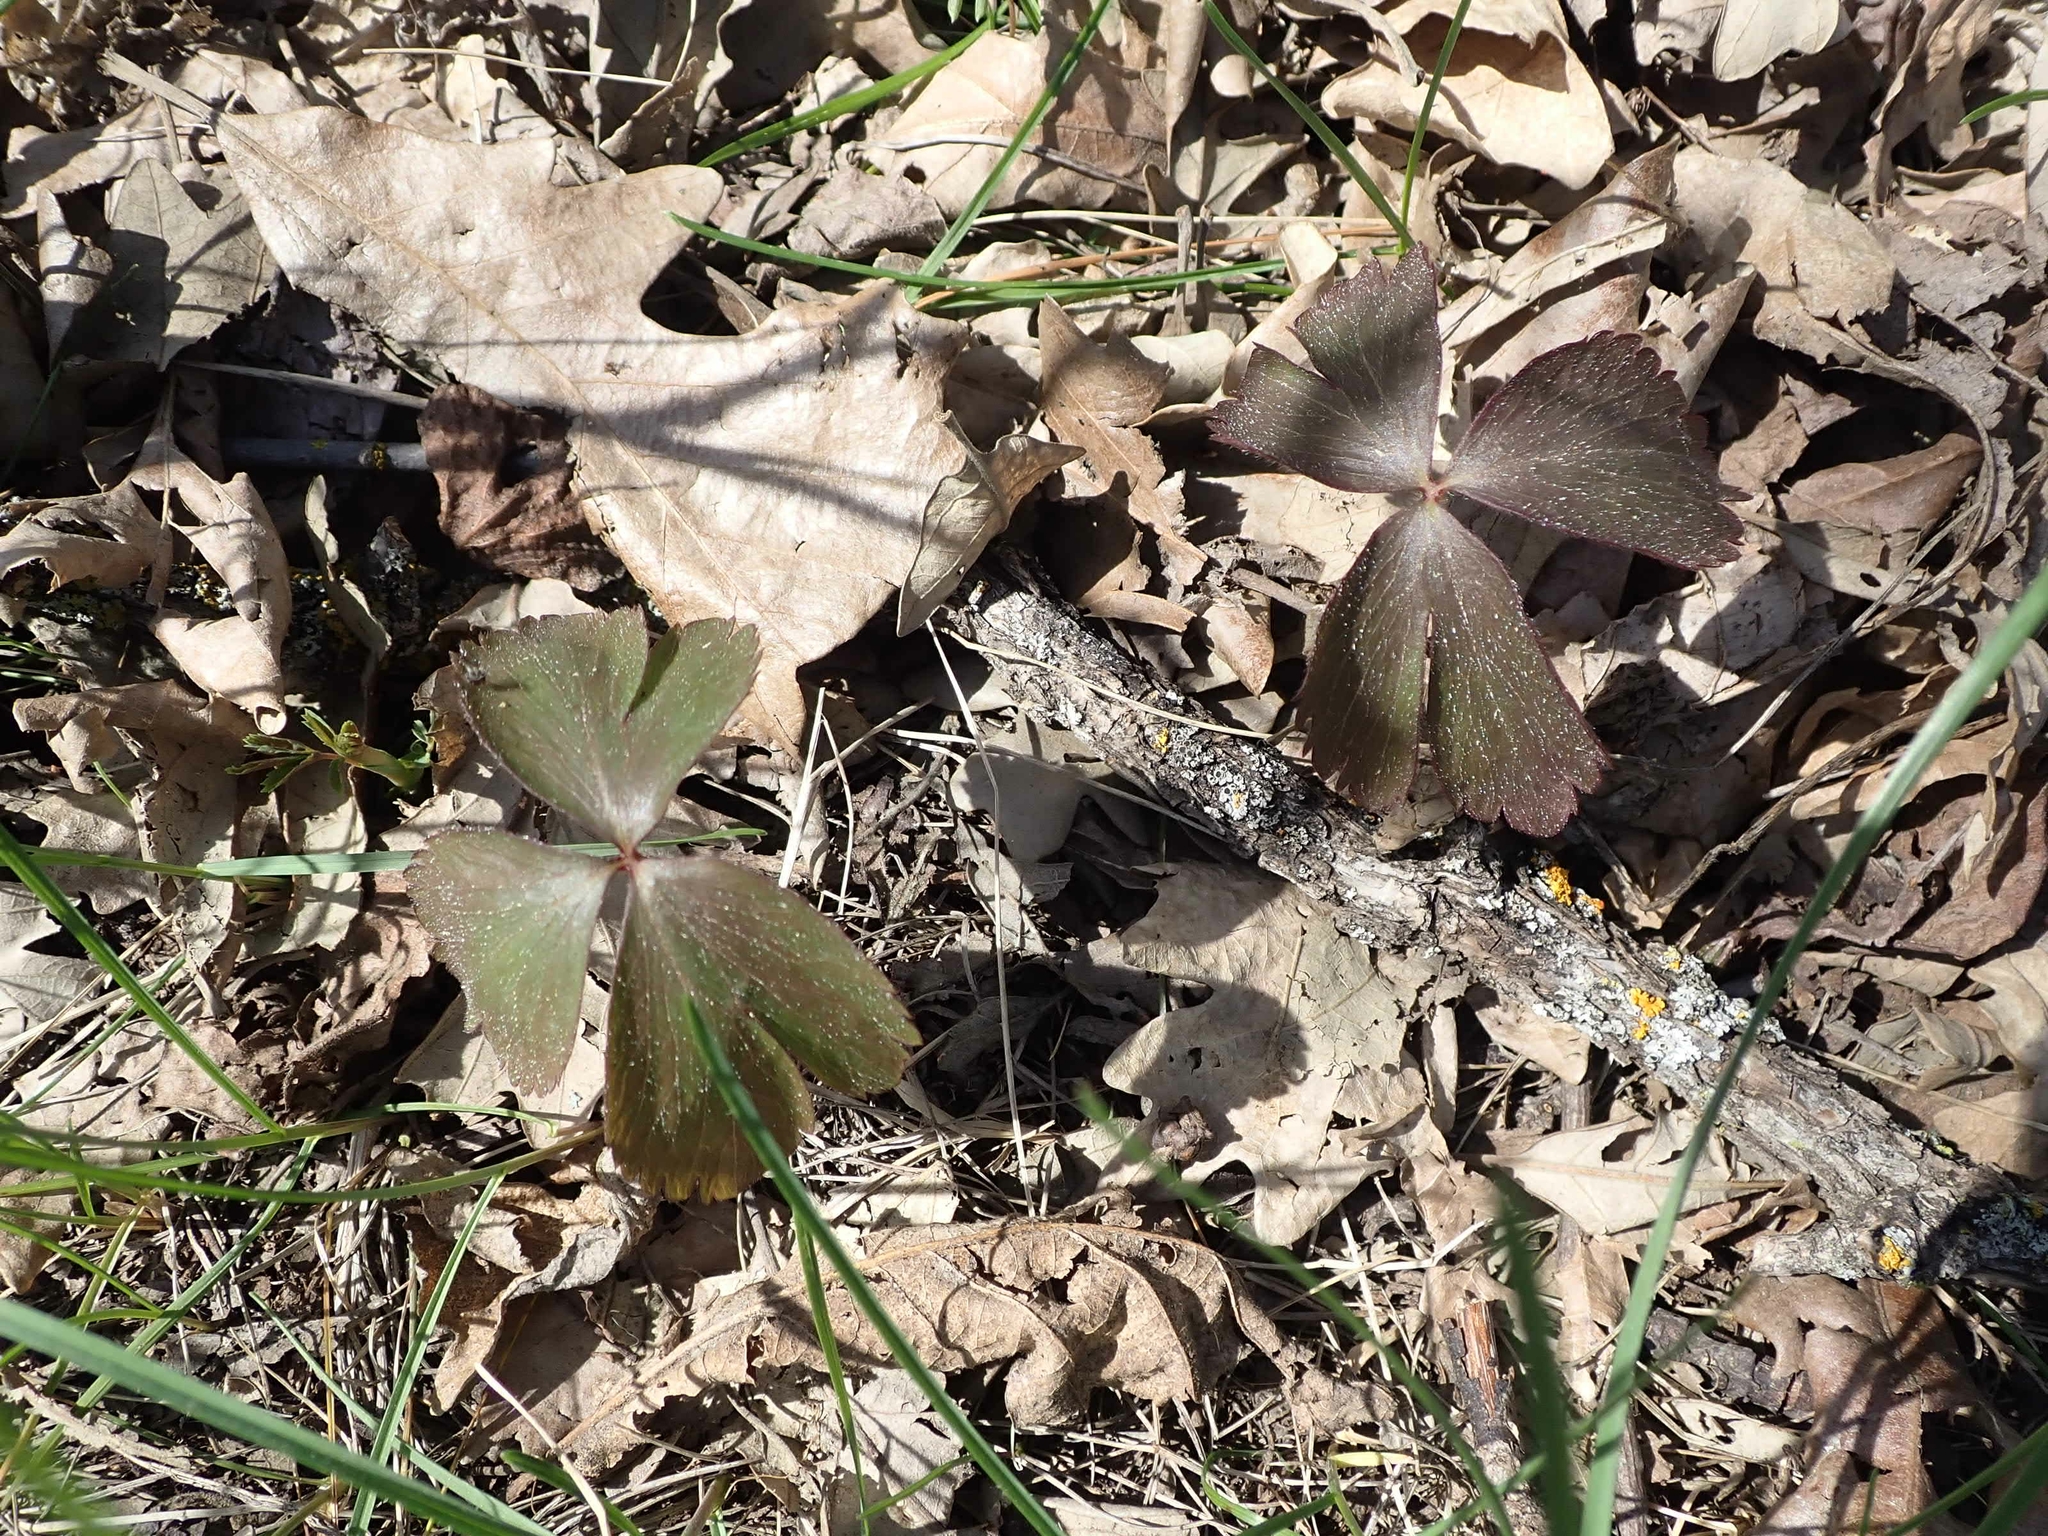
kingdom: Plantae
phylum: Tracheophyta
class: Magnoliopsida
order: Ranunculales
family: Ranunculaceae
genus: Anemone
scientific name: Anemone quinquefolia
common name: Wood anemone
